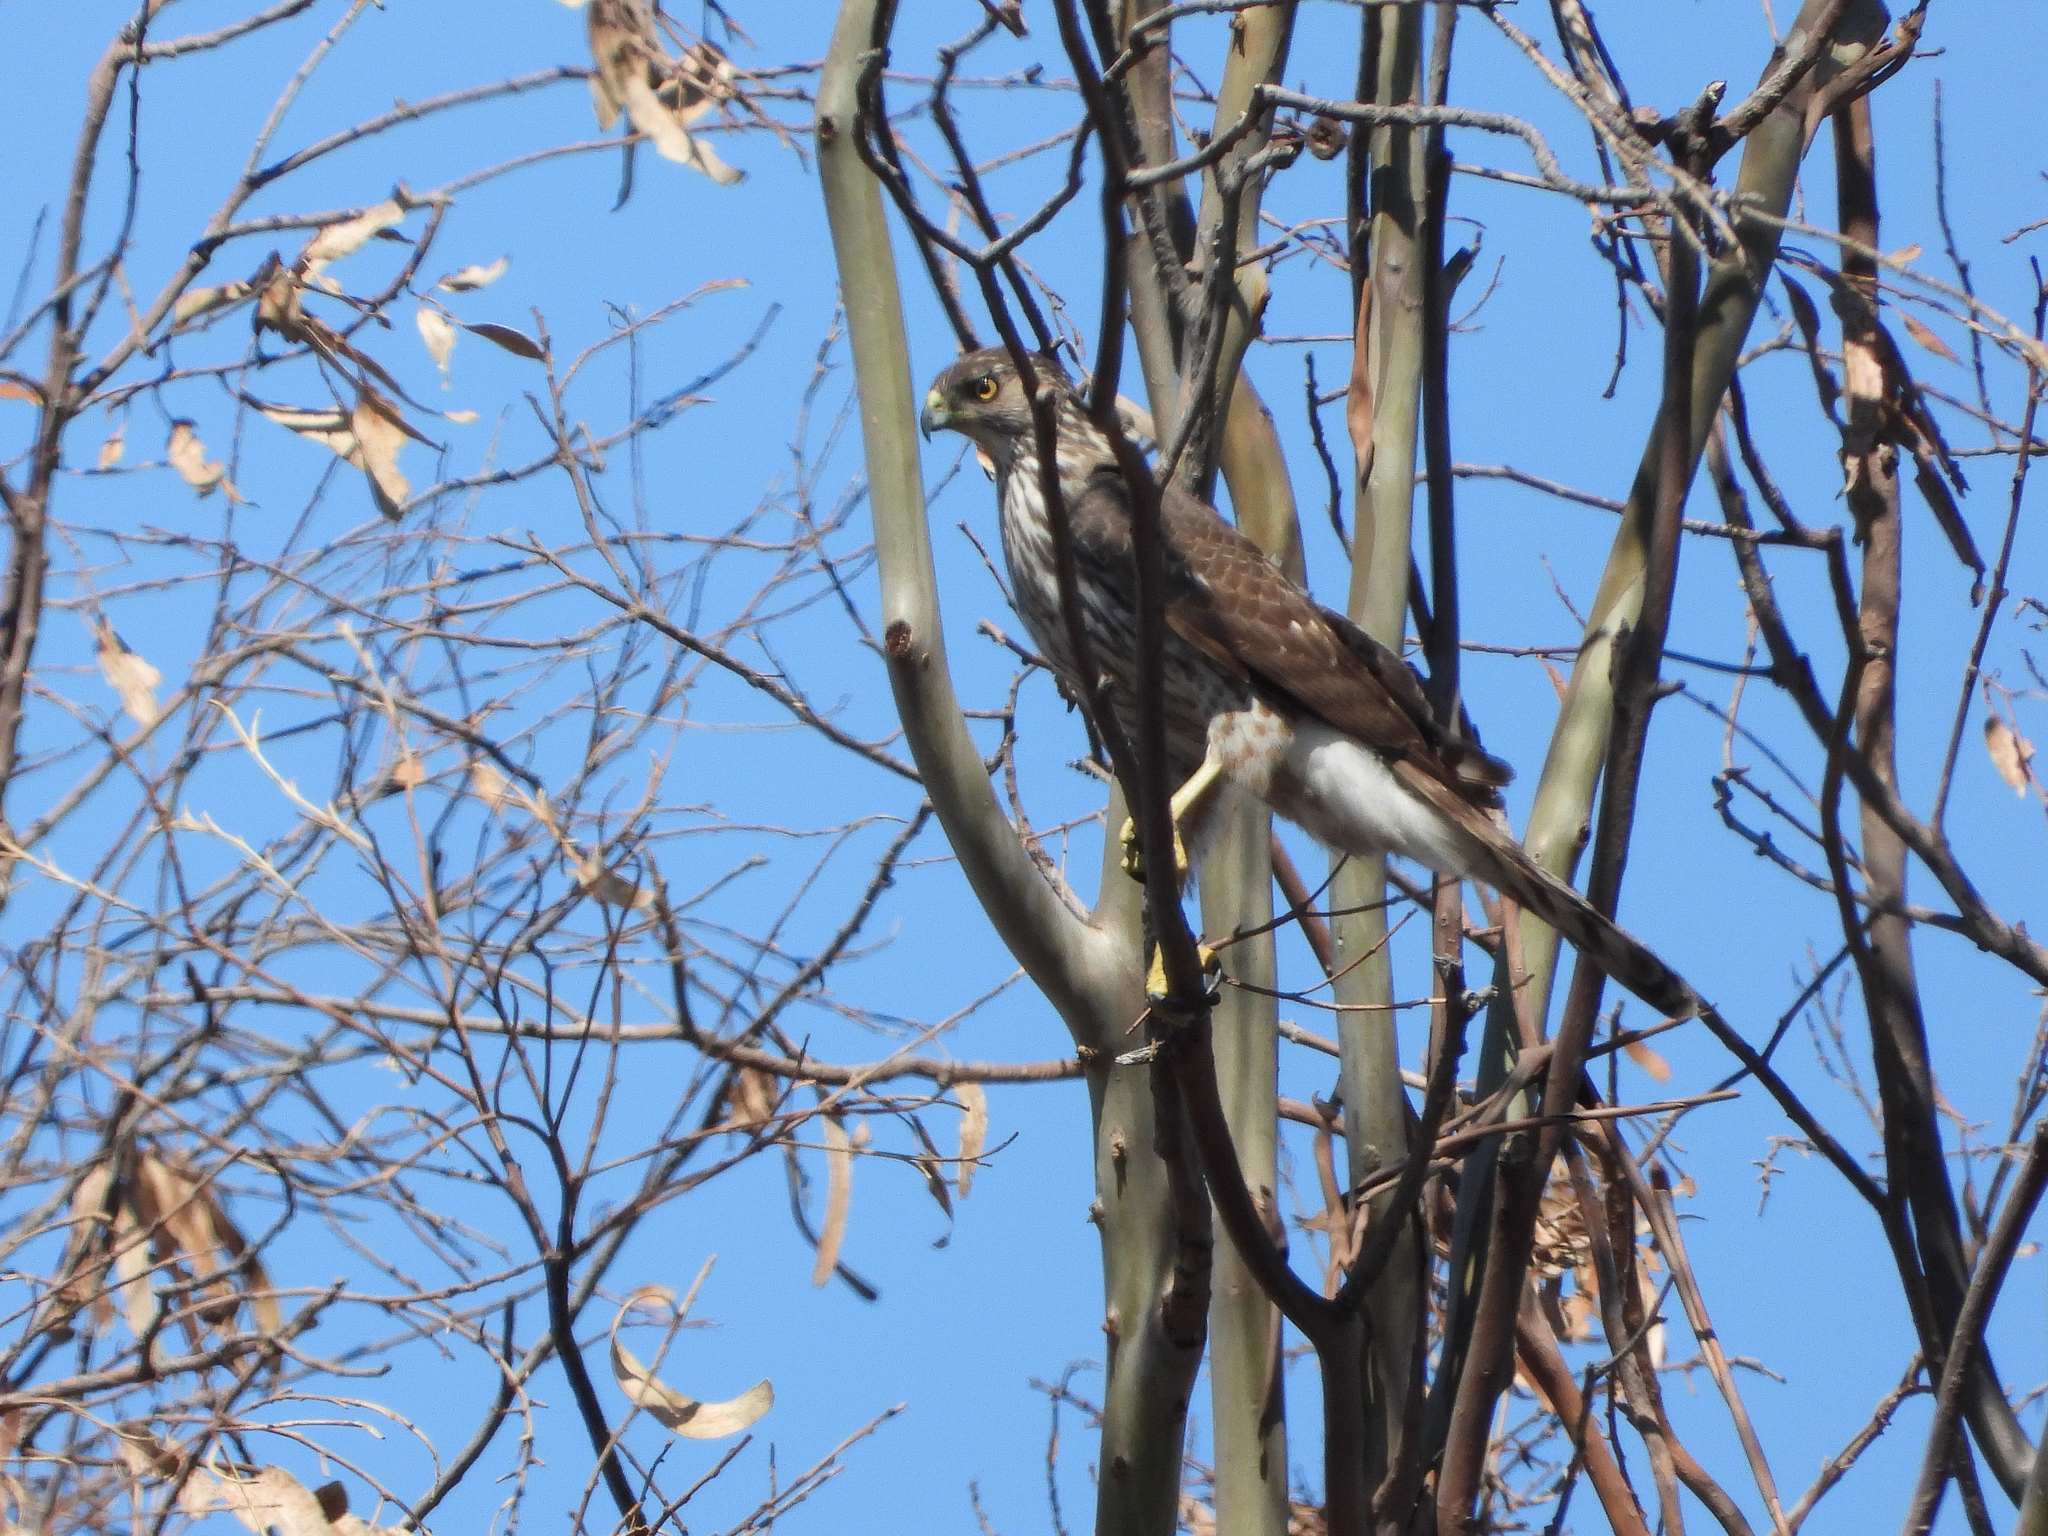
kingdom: Animalia
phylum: Chordata
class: Aves
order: Accipitriformes
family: Accipitridae
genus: Accipiter
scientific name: Accipiter cooperii
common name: Cooper's hawk
